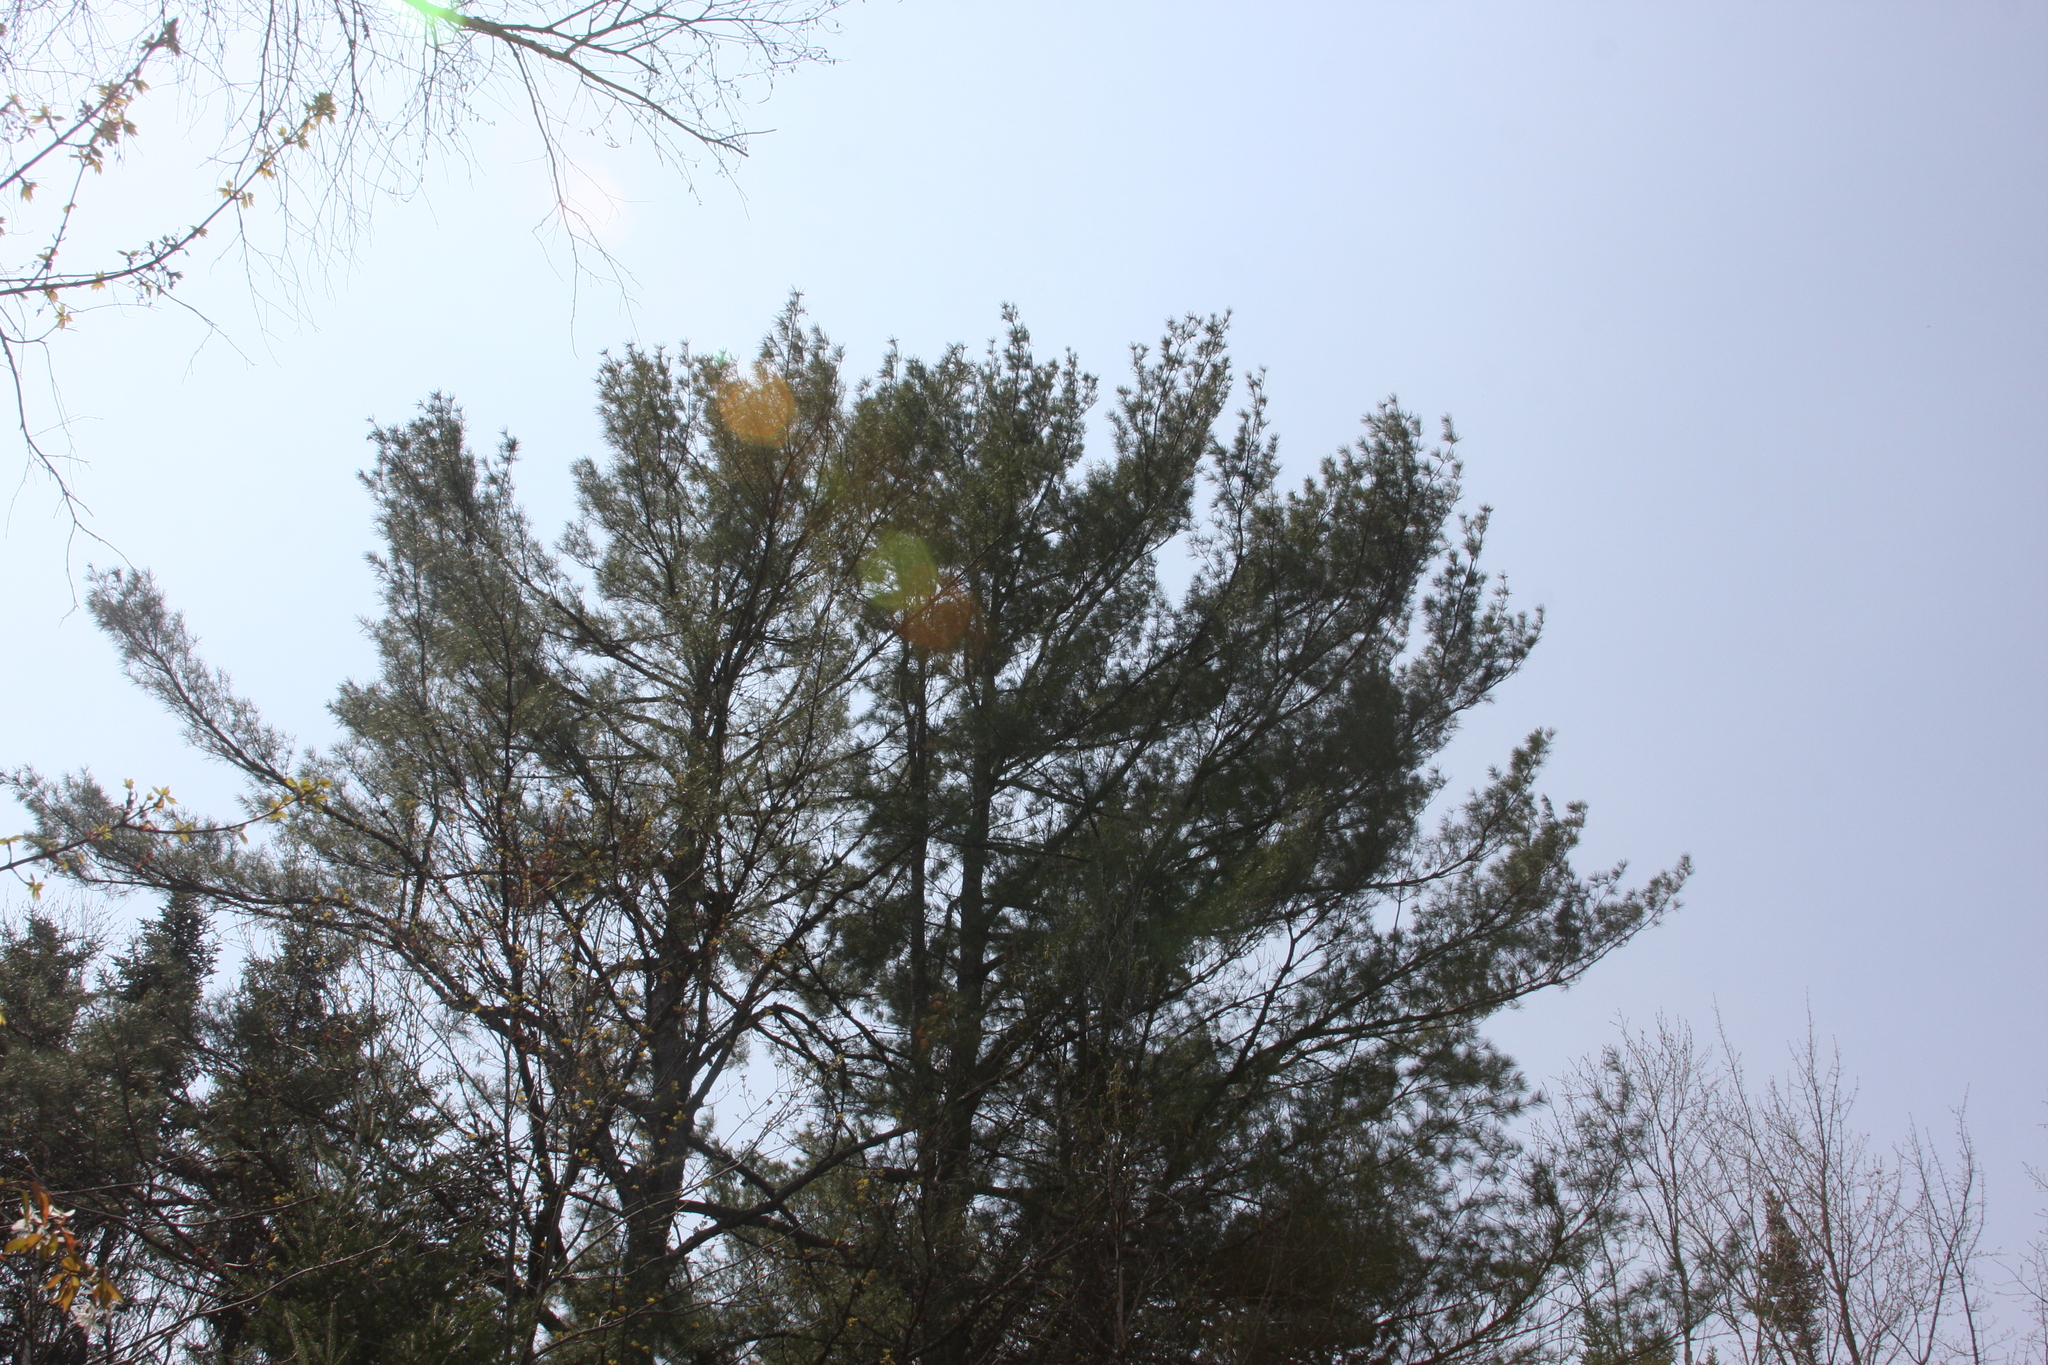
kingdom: Plantae
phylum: Tracheophyta
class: Pinopsida
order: Pinales
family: Pinaceae
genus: Pinus
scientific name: Pinus strobus
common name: Weymouth pine
